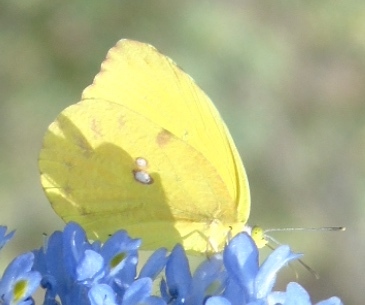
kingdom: Animalia
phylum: Arthropoda
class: Insecta
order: Lepidoptera
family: Pieridae
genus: Prestonia
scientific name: Prestonia clarki
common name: West-mexican sulphur
